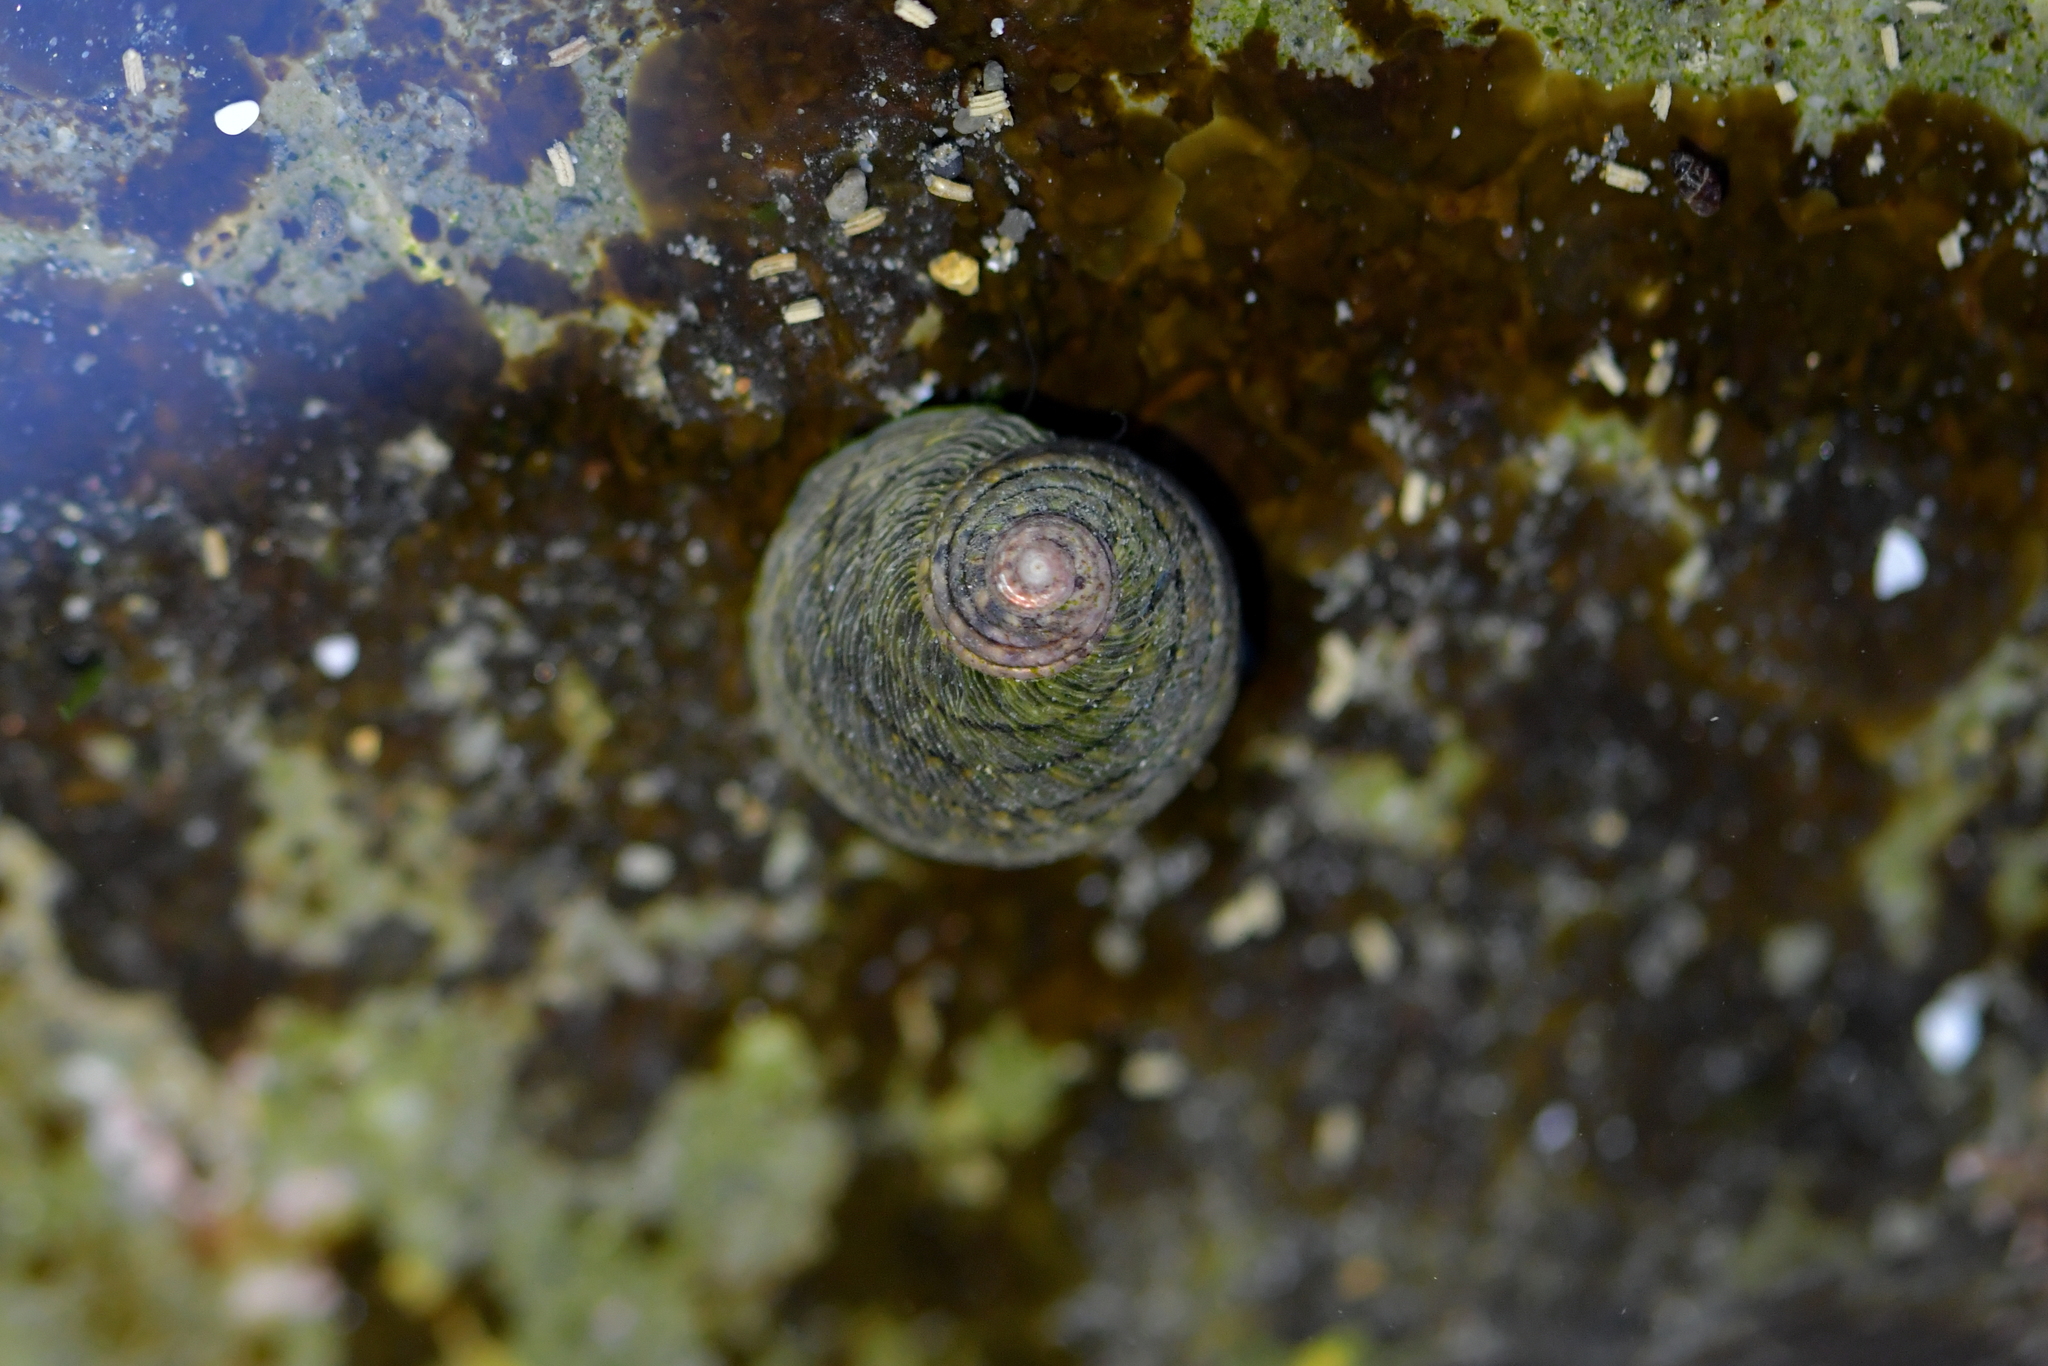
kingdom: Animalia
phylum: Mollusca
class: Gastropoda
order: Trochida
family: Trochidae
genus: Diloma
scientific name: Diloma aethiops
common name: Scorched monodont
